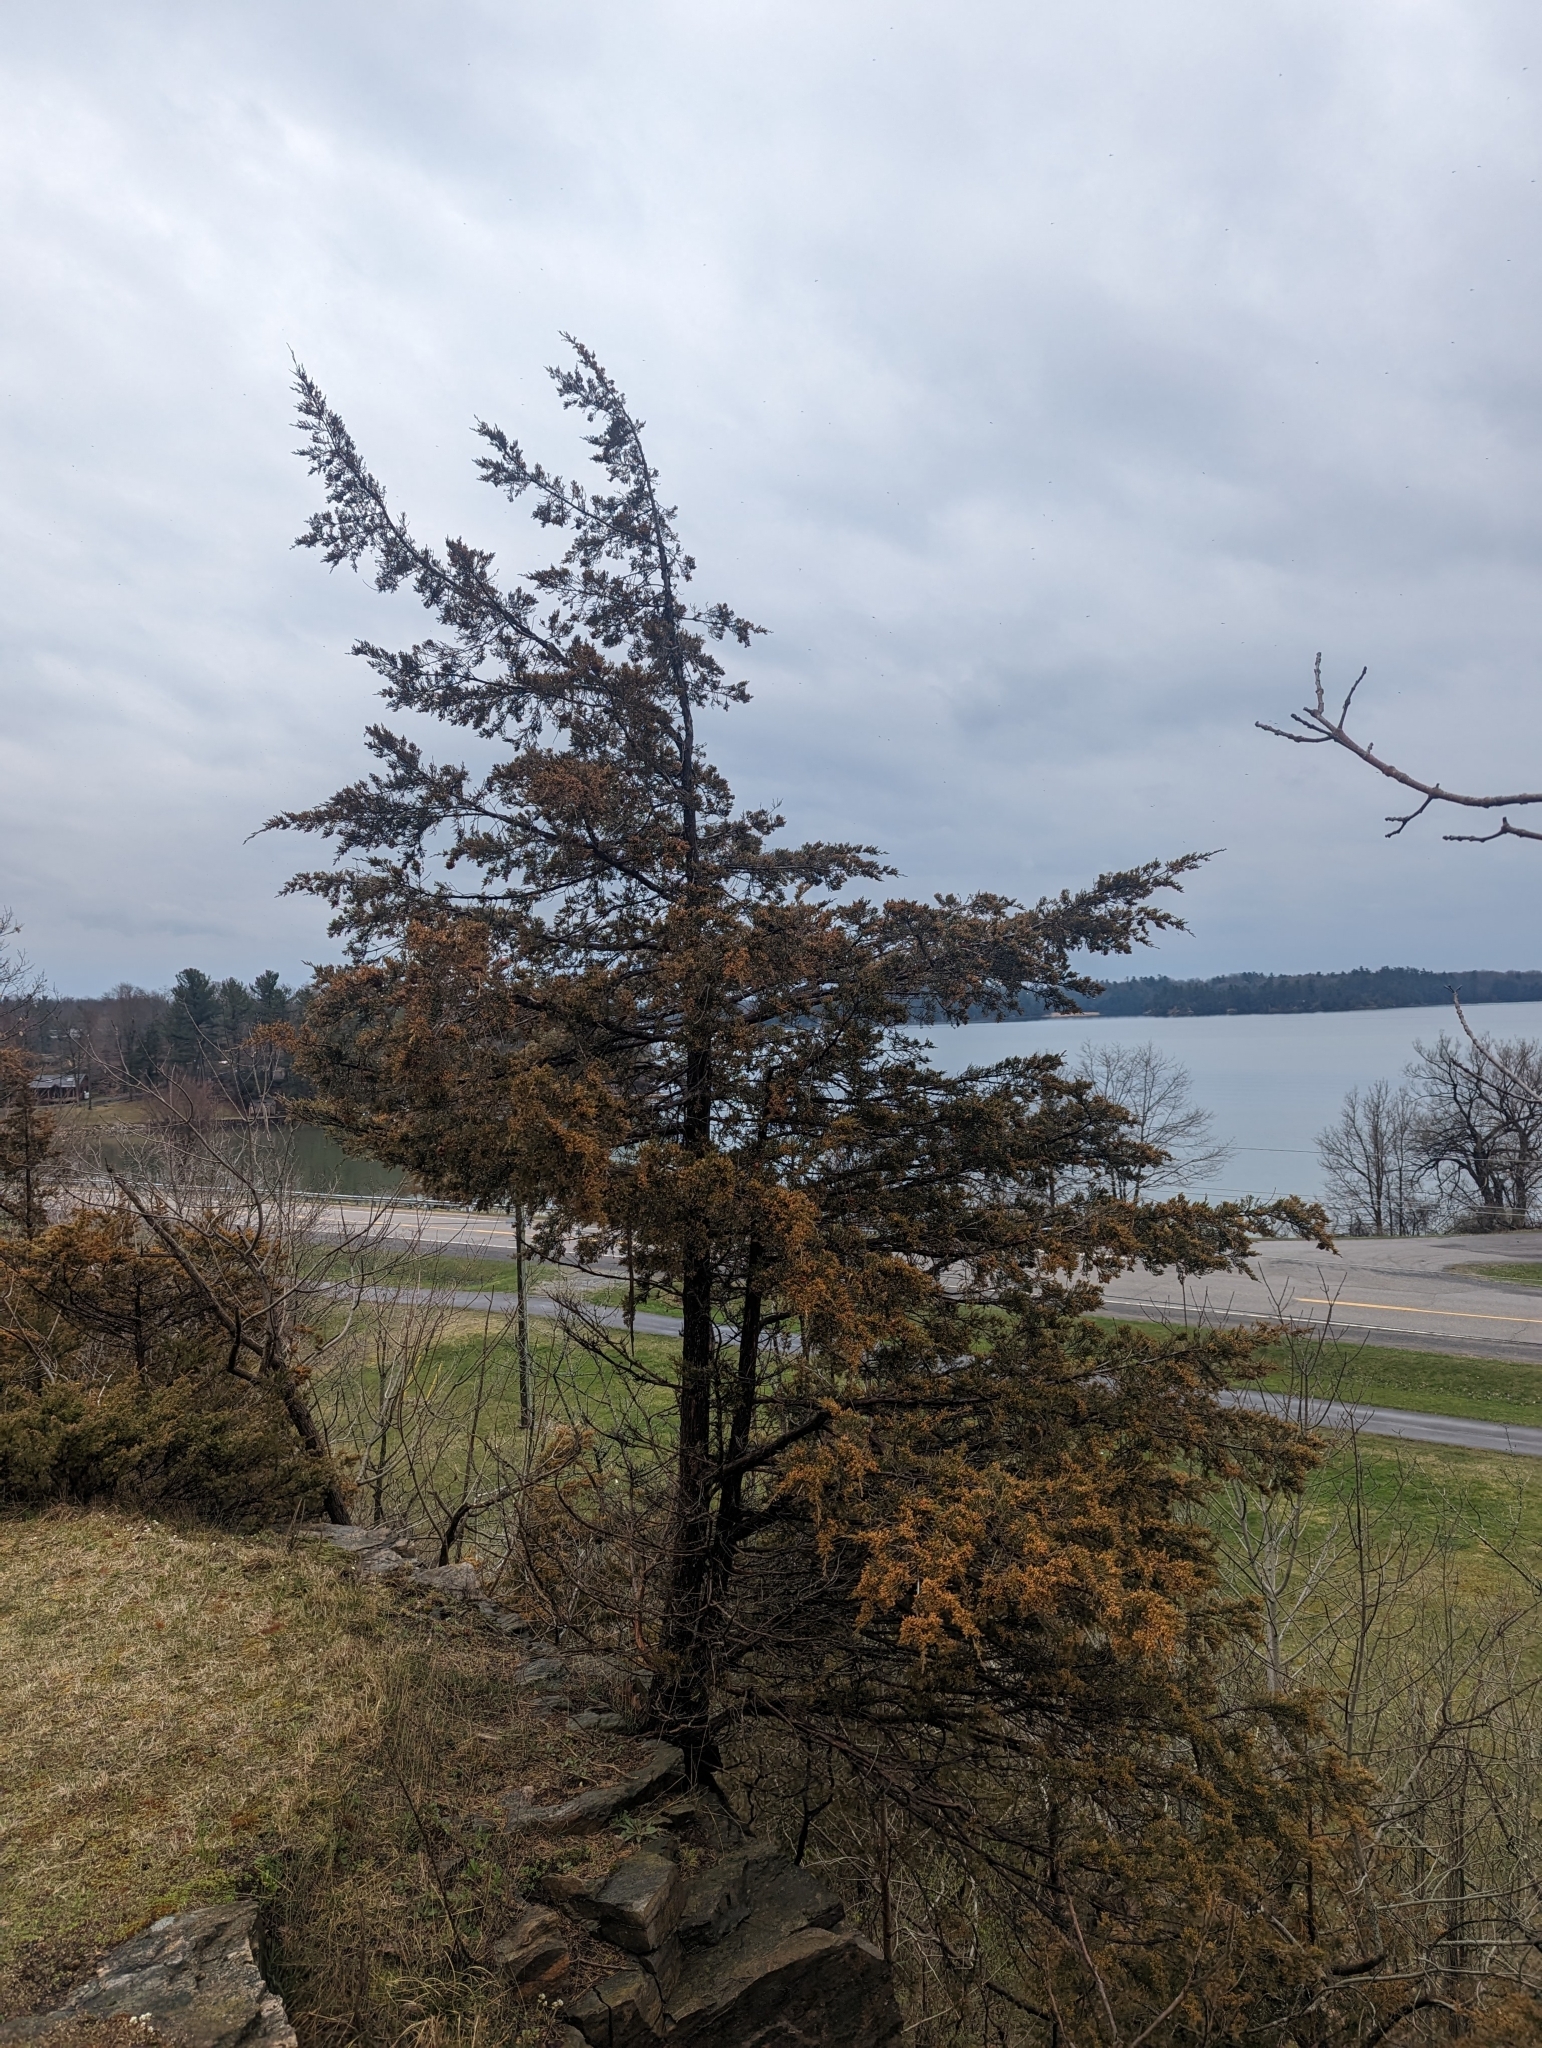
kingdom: Plantae
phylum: Tracheophyta
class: Pinopsida
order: Pinales
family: Cupressaceae
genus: Juniperus
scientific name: Juniperus virginiana
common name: Red juniper
